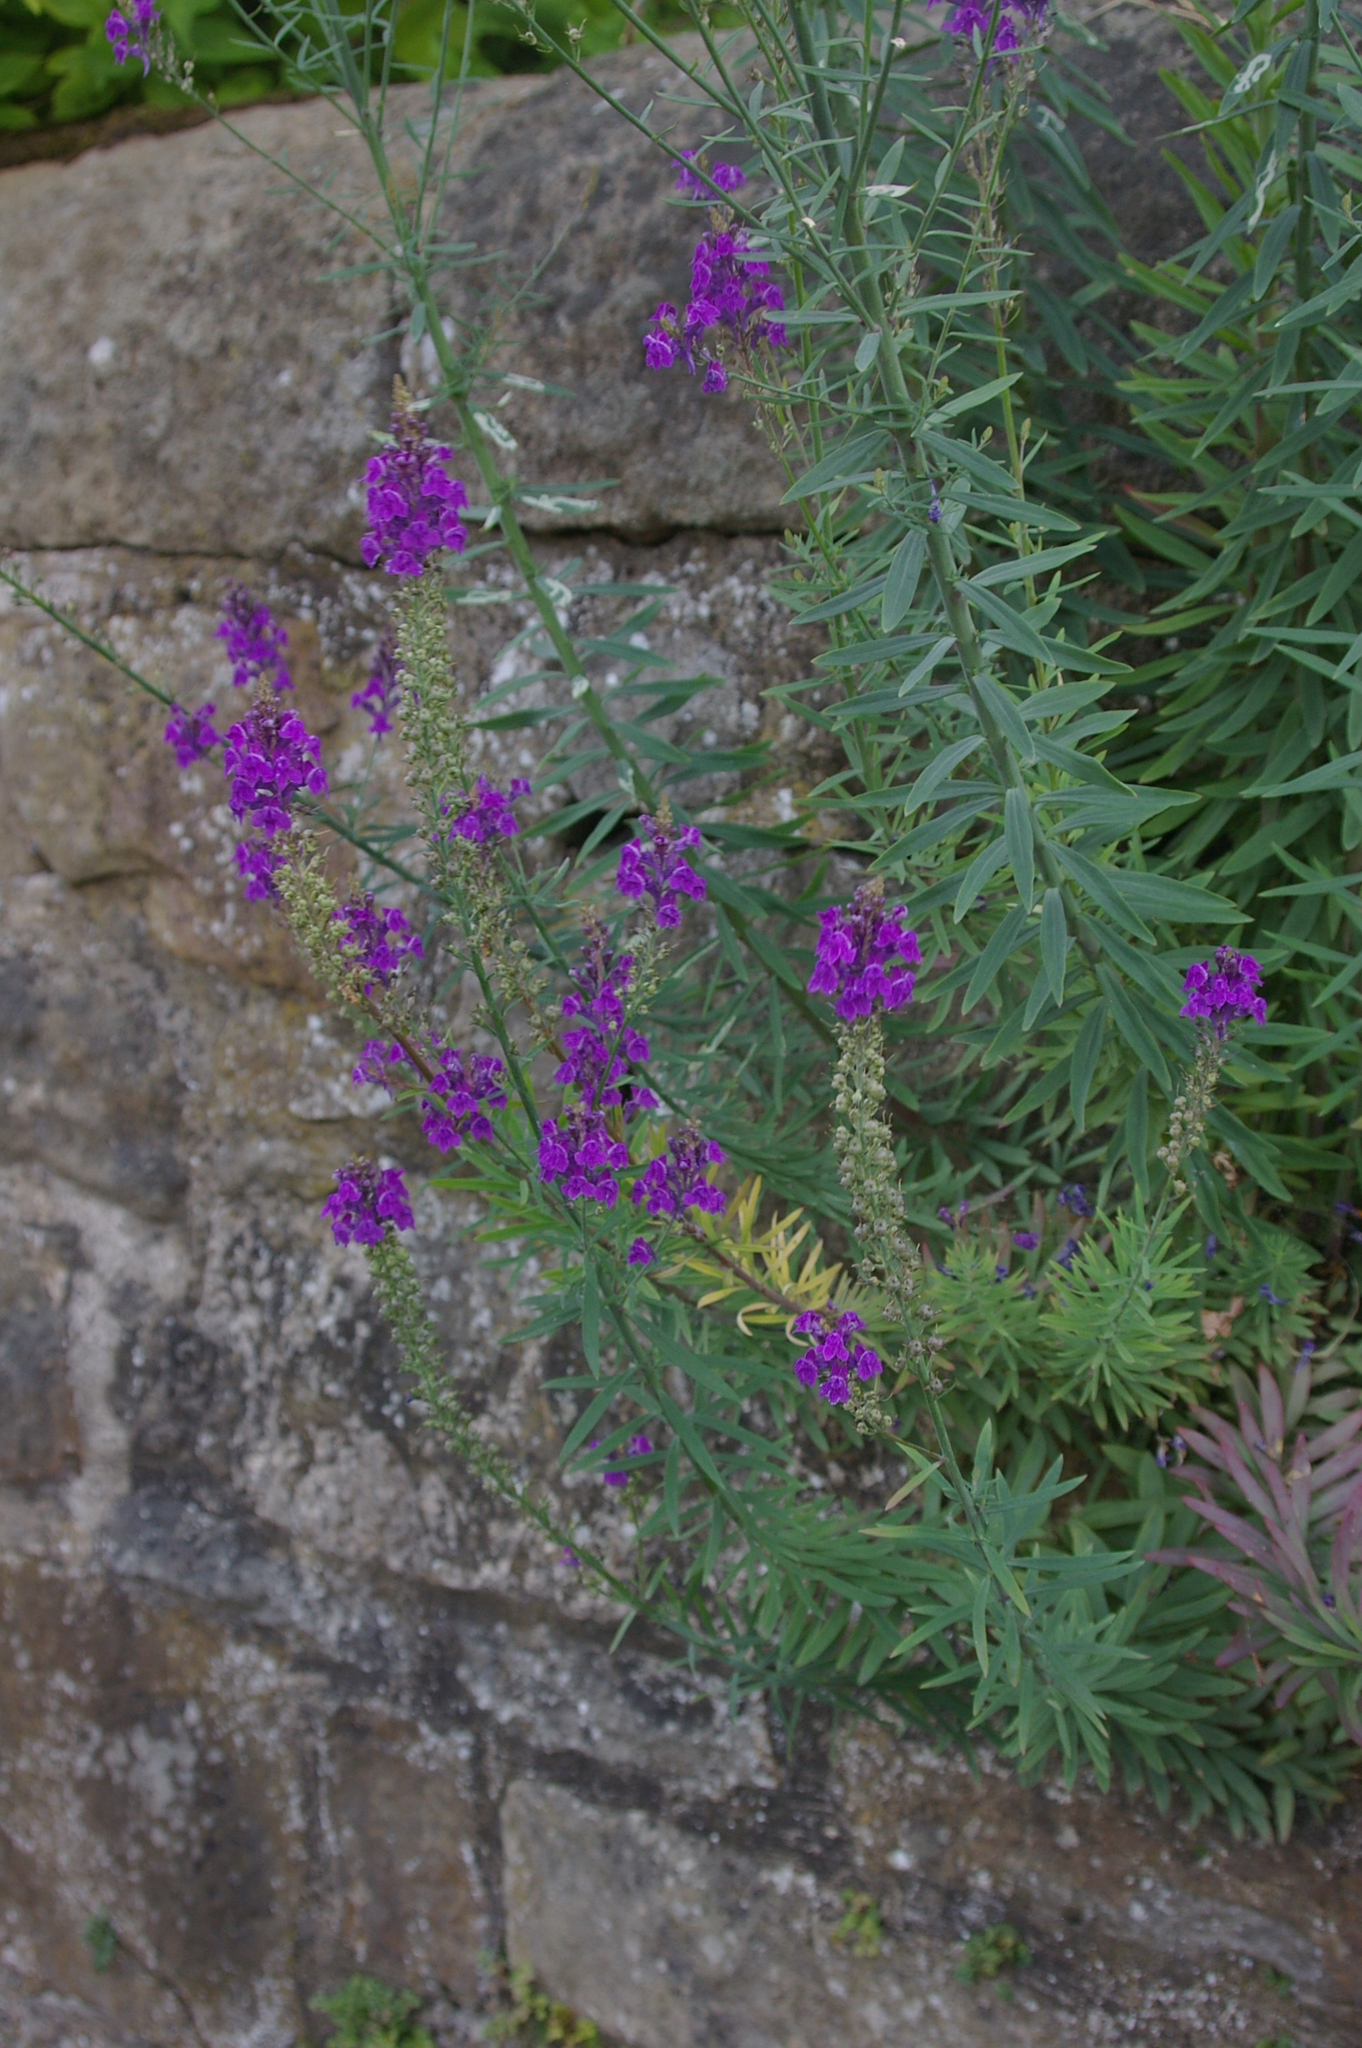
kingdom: Plantae
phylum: Tracheophyta
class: Magnoliopsida
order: Lamiales
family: Plantaginaceae
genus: Linaria
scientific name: Linaria purpurea
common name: Purple toadflax
